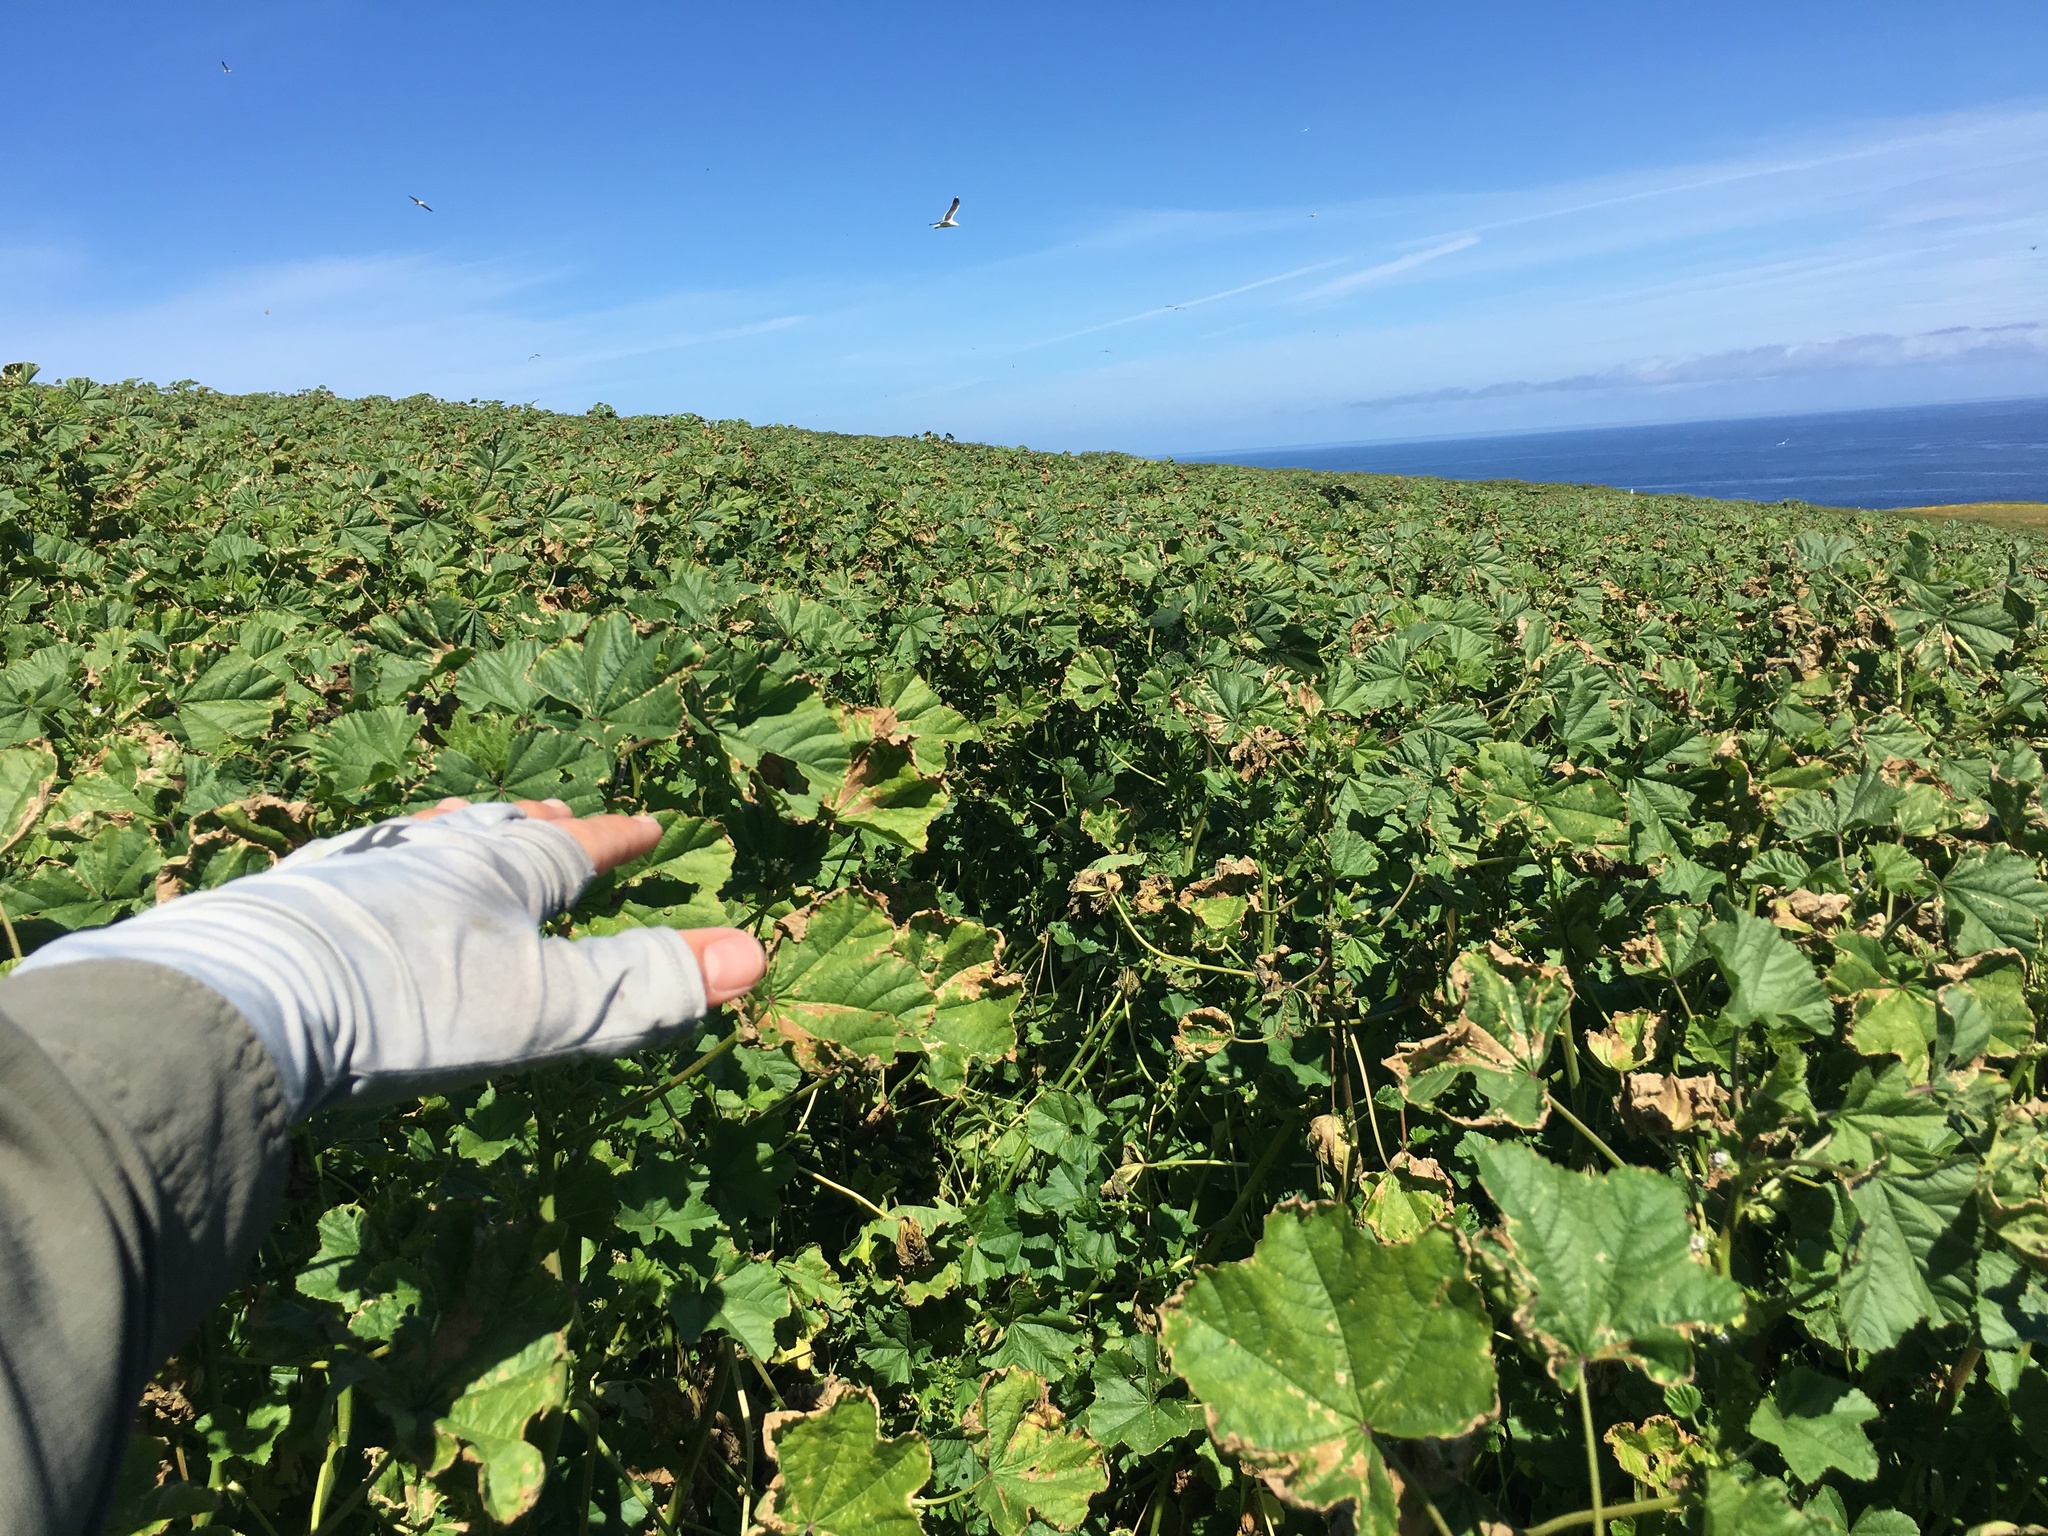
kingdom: Plantae
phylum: Tracheophyta
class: Magnoliopsida
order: Malvales
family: Malvaceae
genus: Malva
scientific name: Malva parviflora
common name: Least mallow
